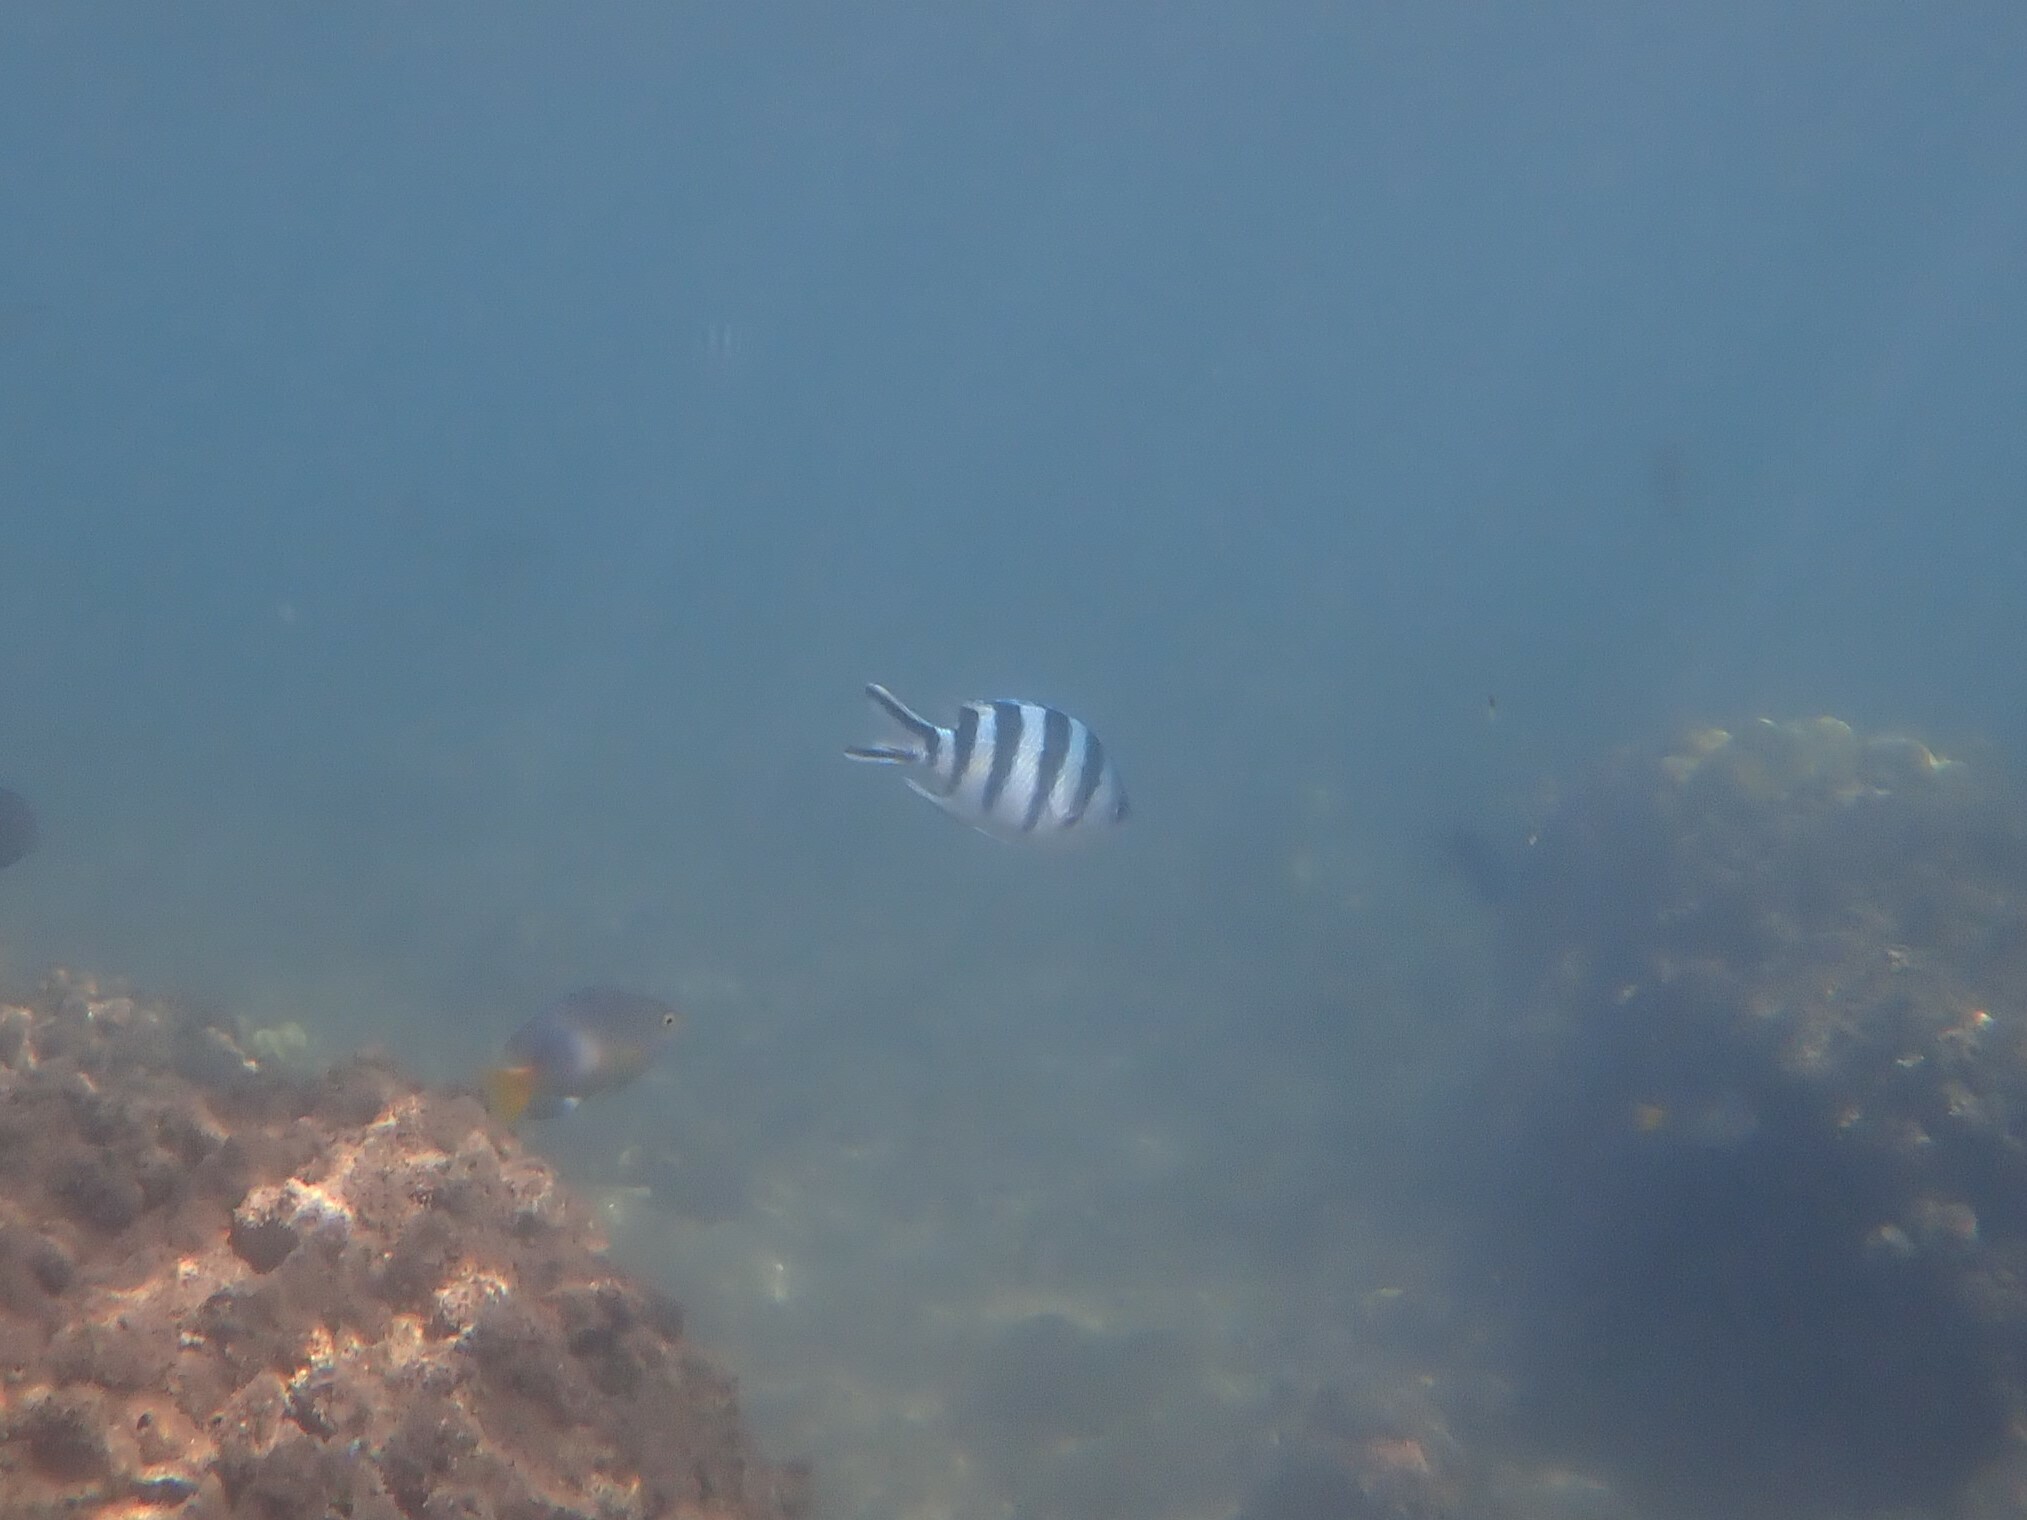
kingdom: Animalia
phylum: Chordata
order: Perciformes
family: Pomacentridae
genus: Abudefduf
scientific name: Abudefduf sexfasciatus
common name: Scissortail sergeant
